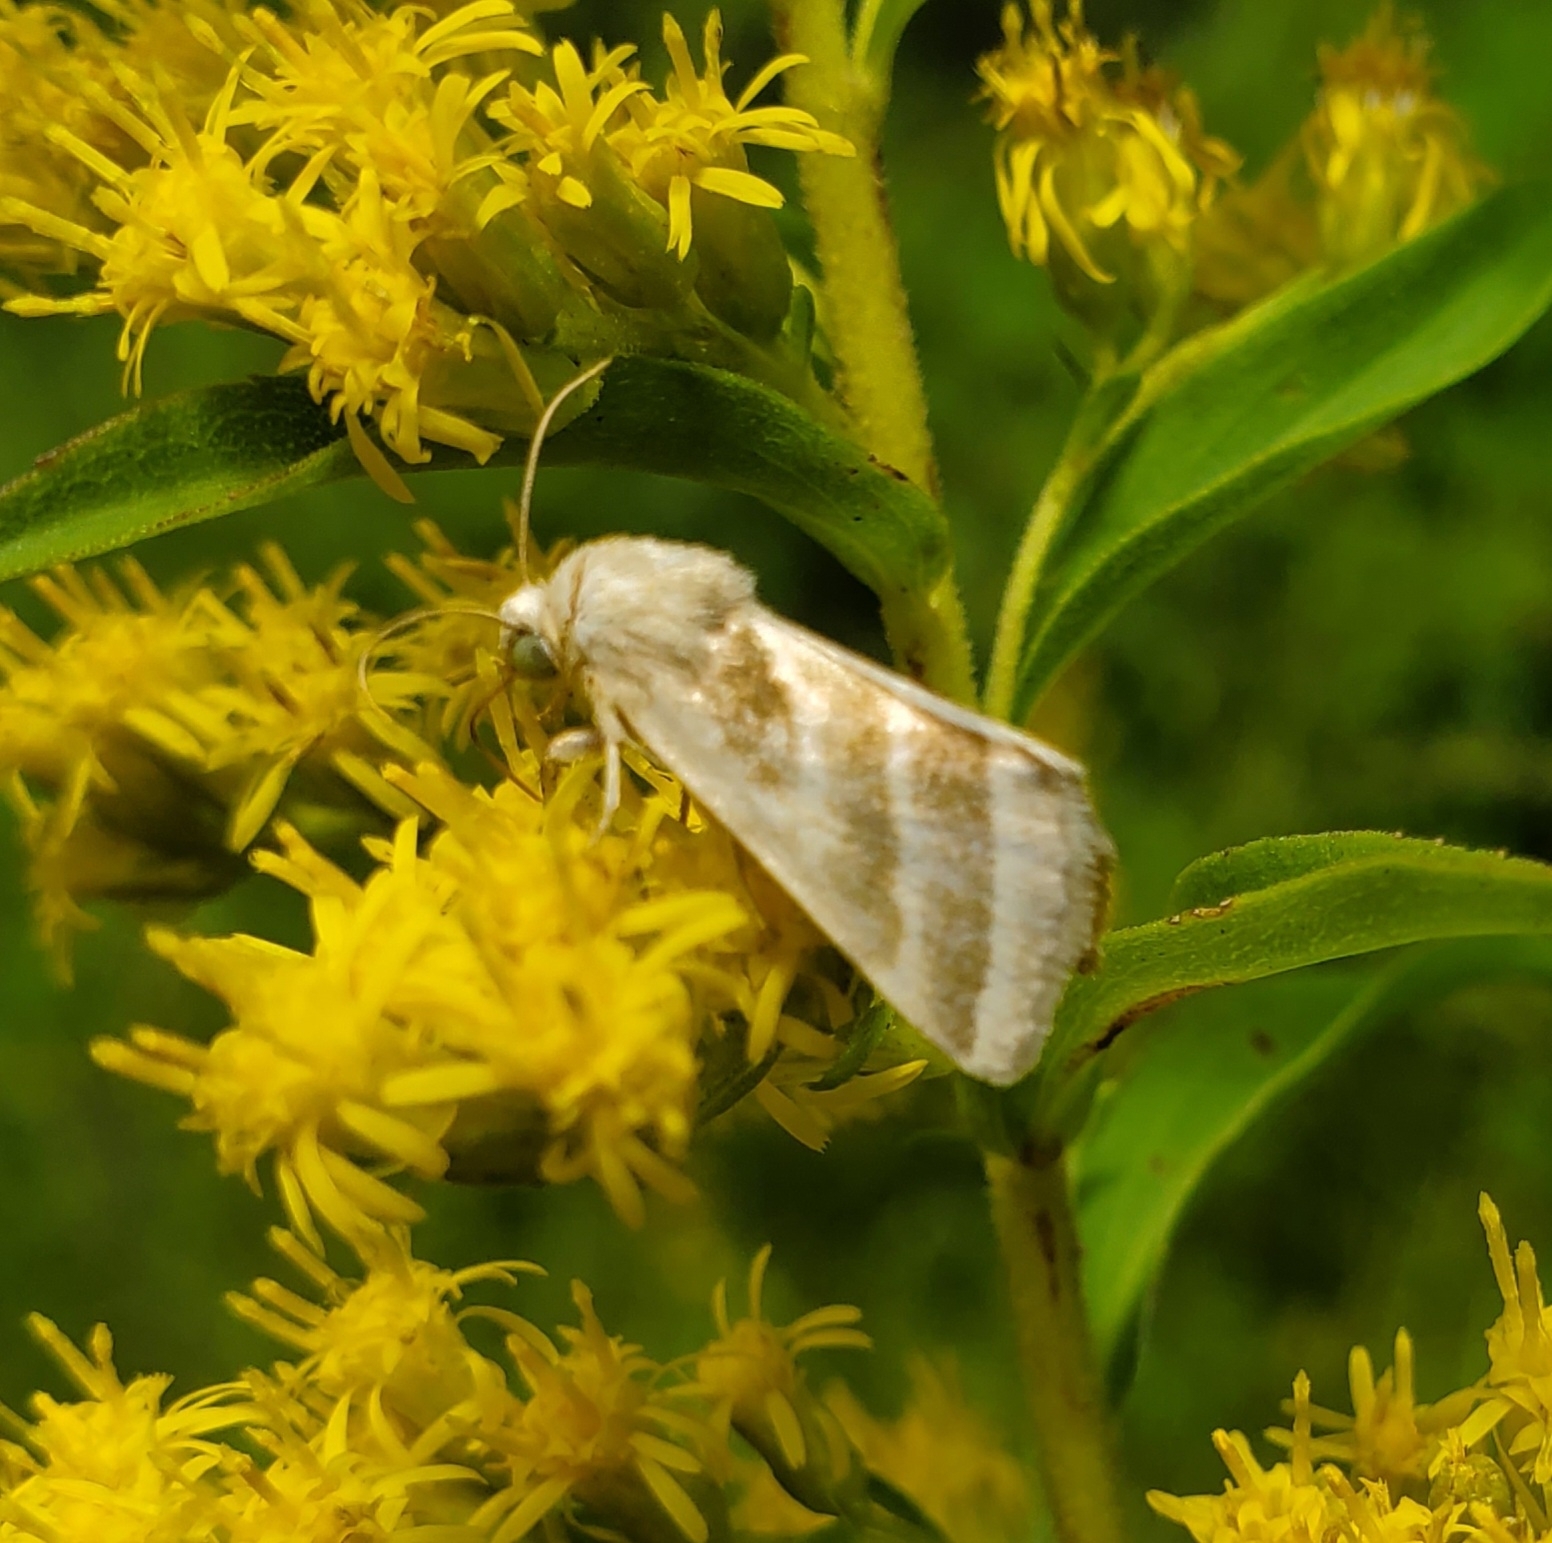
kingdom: Animalia
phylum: Arthropoda
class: Insecta
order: Lepidoptera
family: Noctuidae
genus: Schinia
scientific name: Schinia trifascia
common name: Three-lined flower moth
